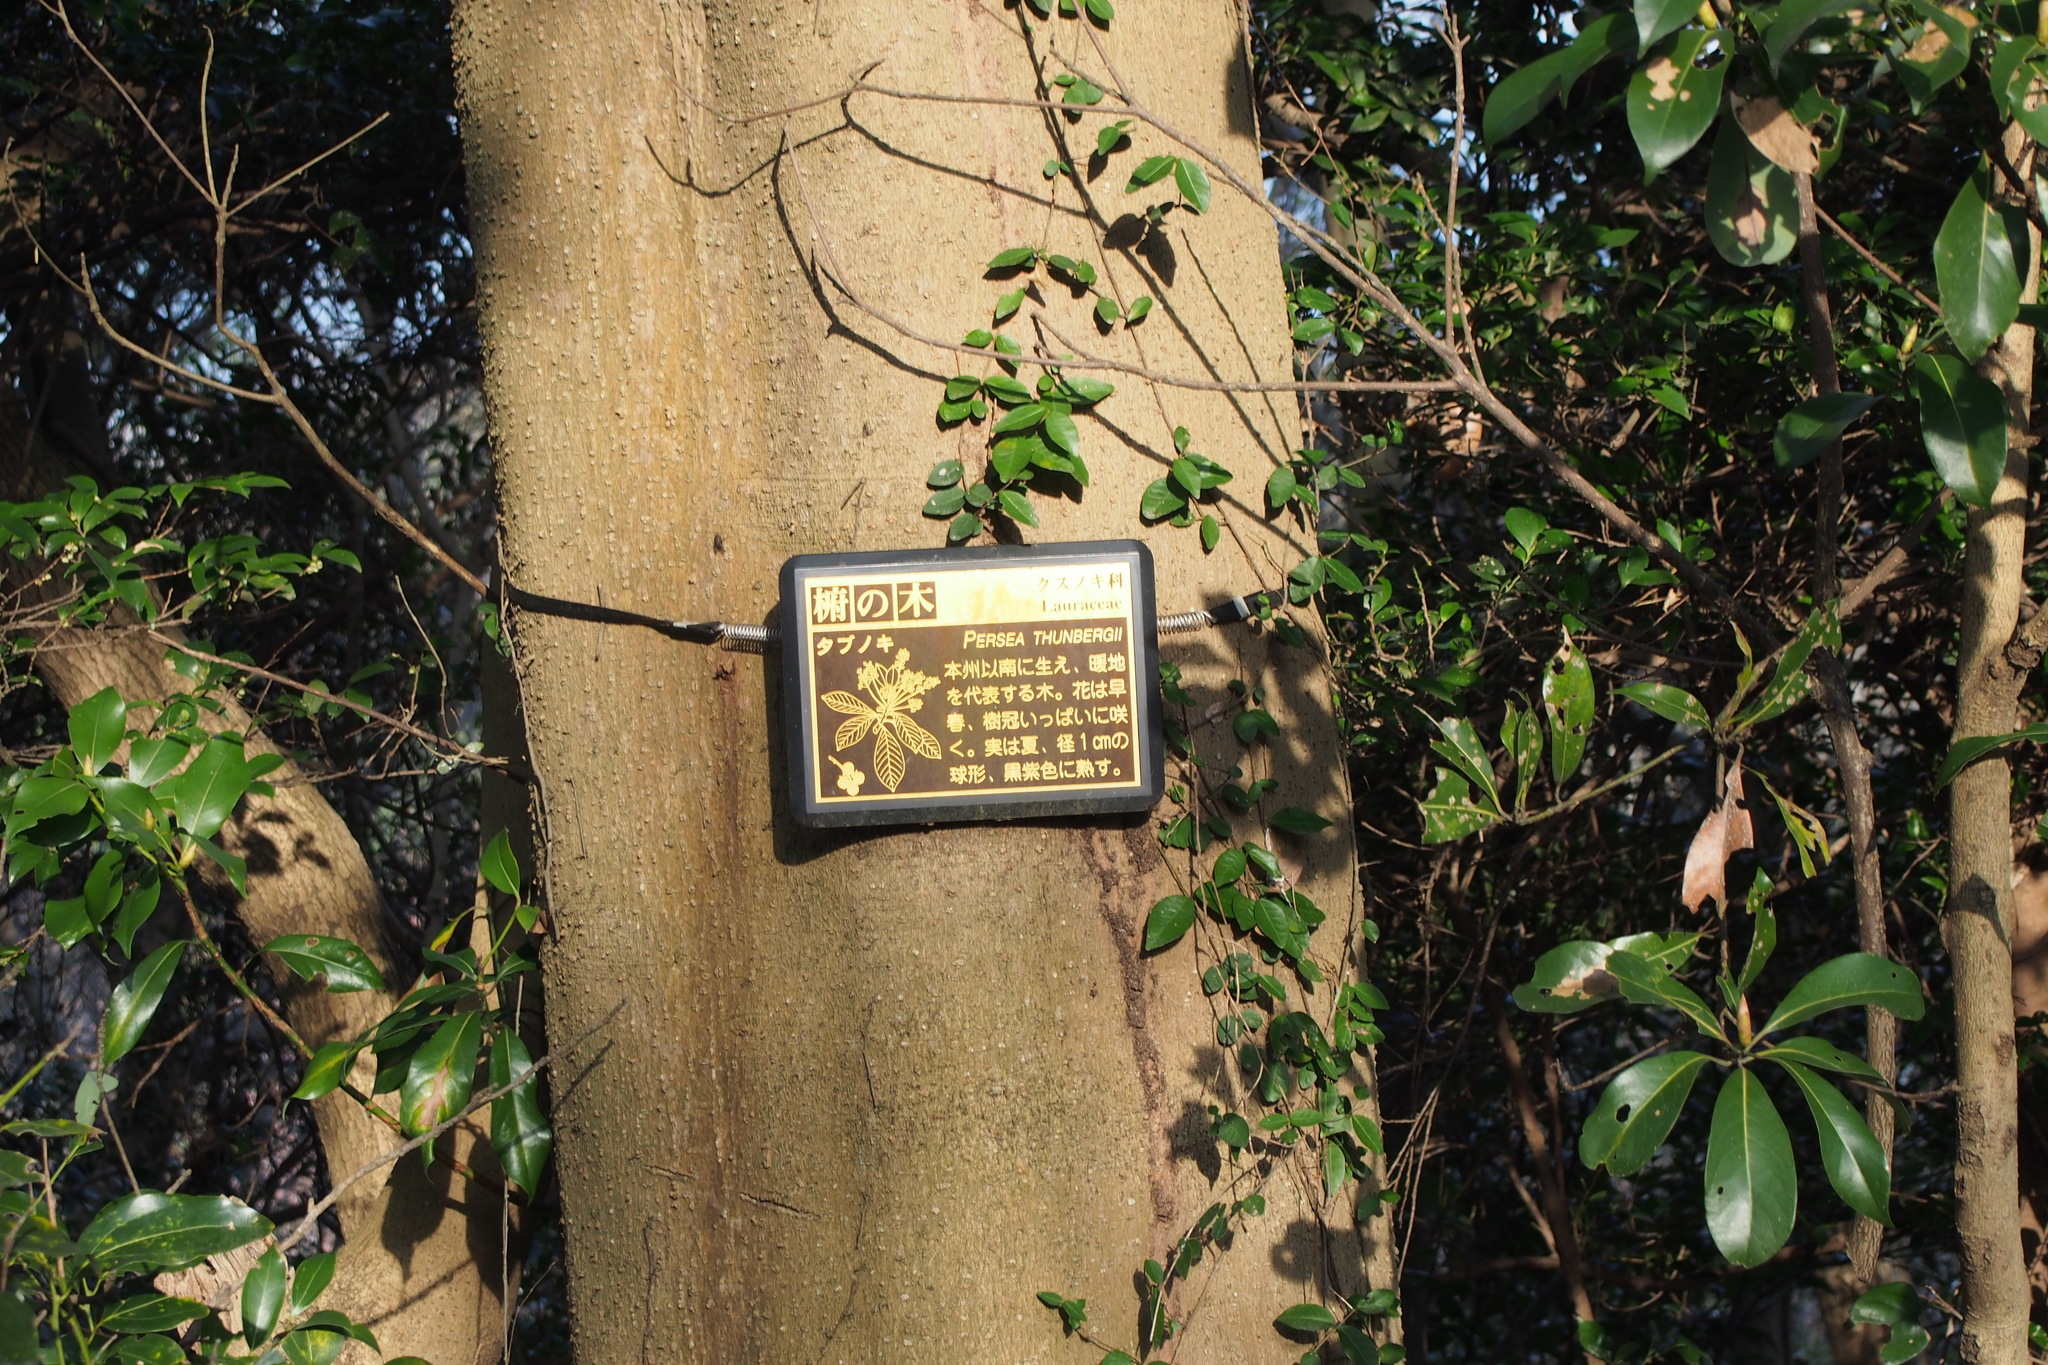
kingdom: Plantae
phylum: Tracheophyta
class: Magnoliopsida
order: Laurales
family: Lauraceae
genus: Machilus
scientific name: Machilus thunbergii
